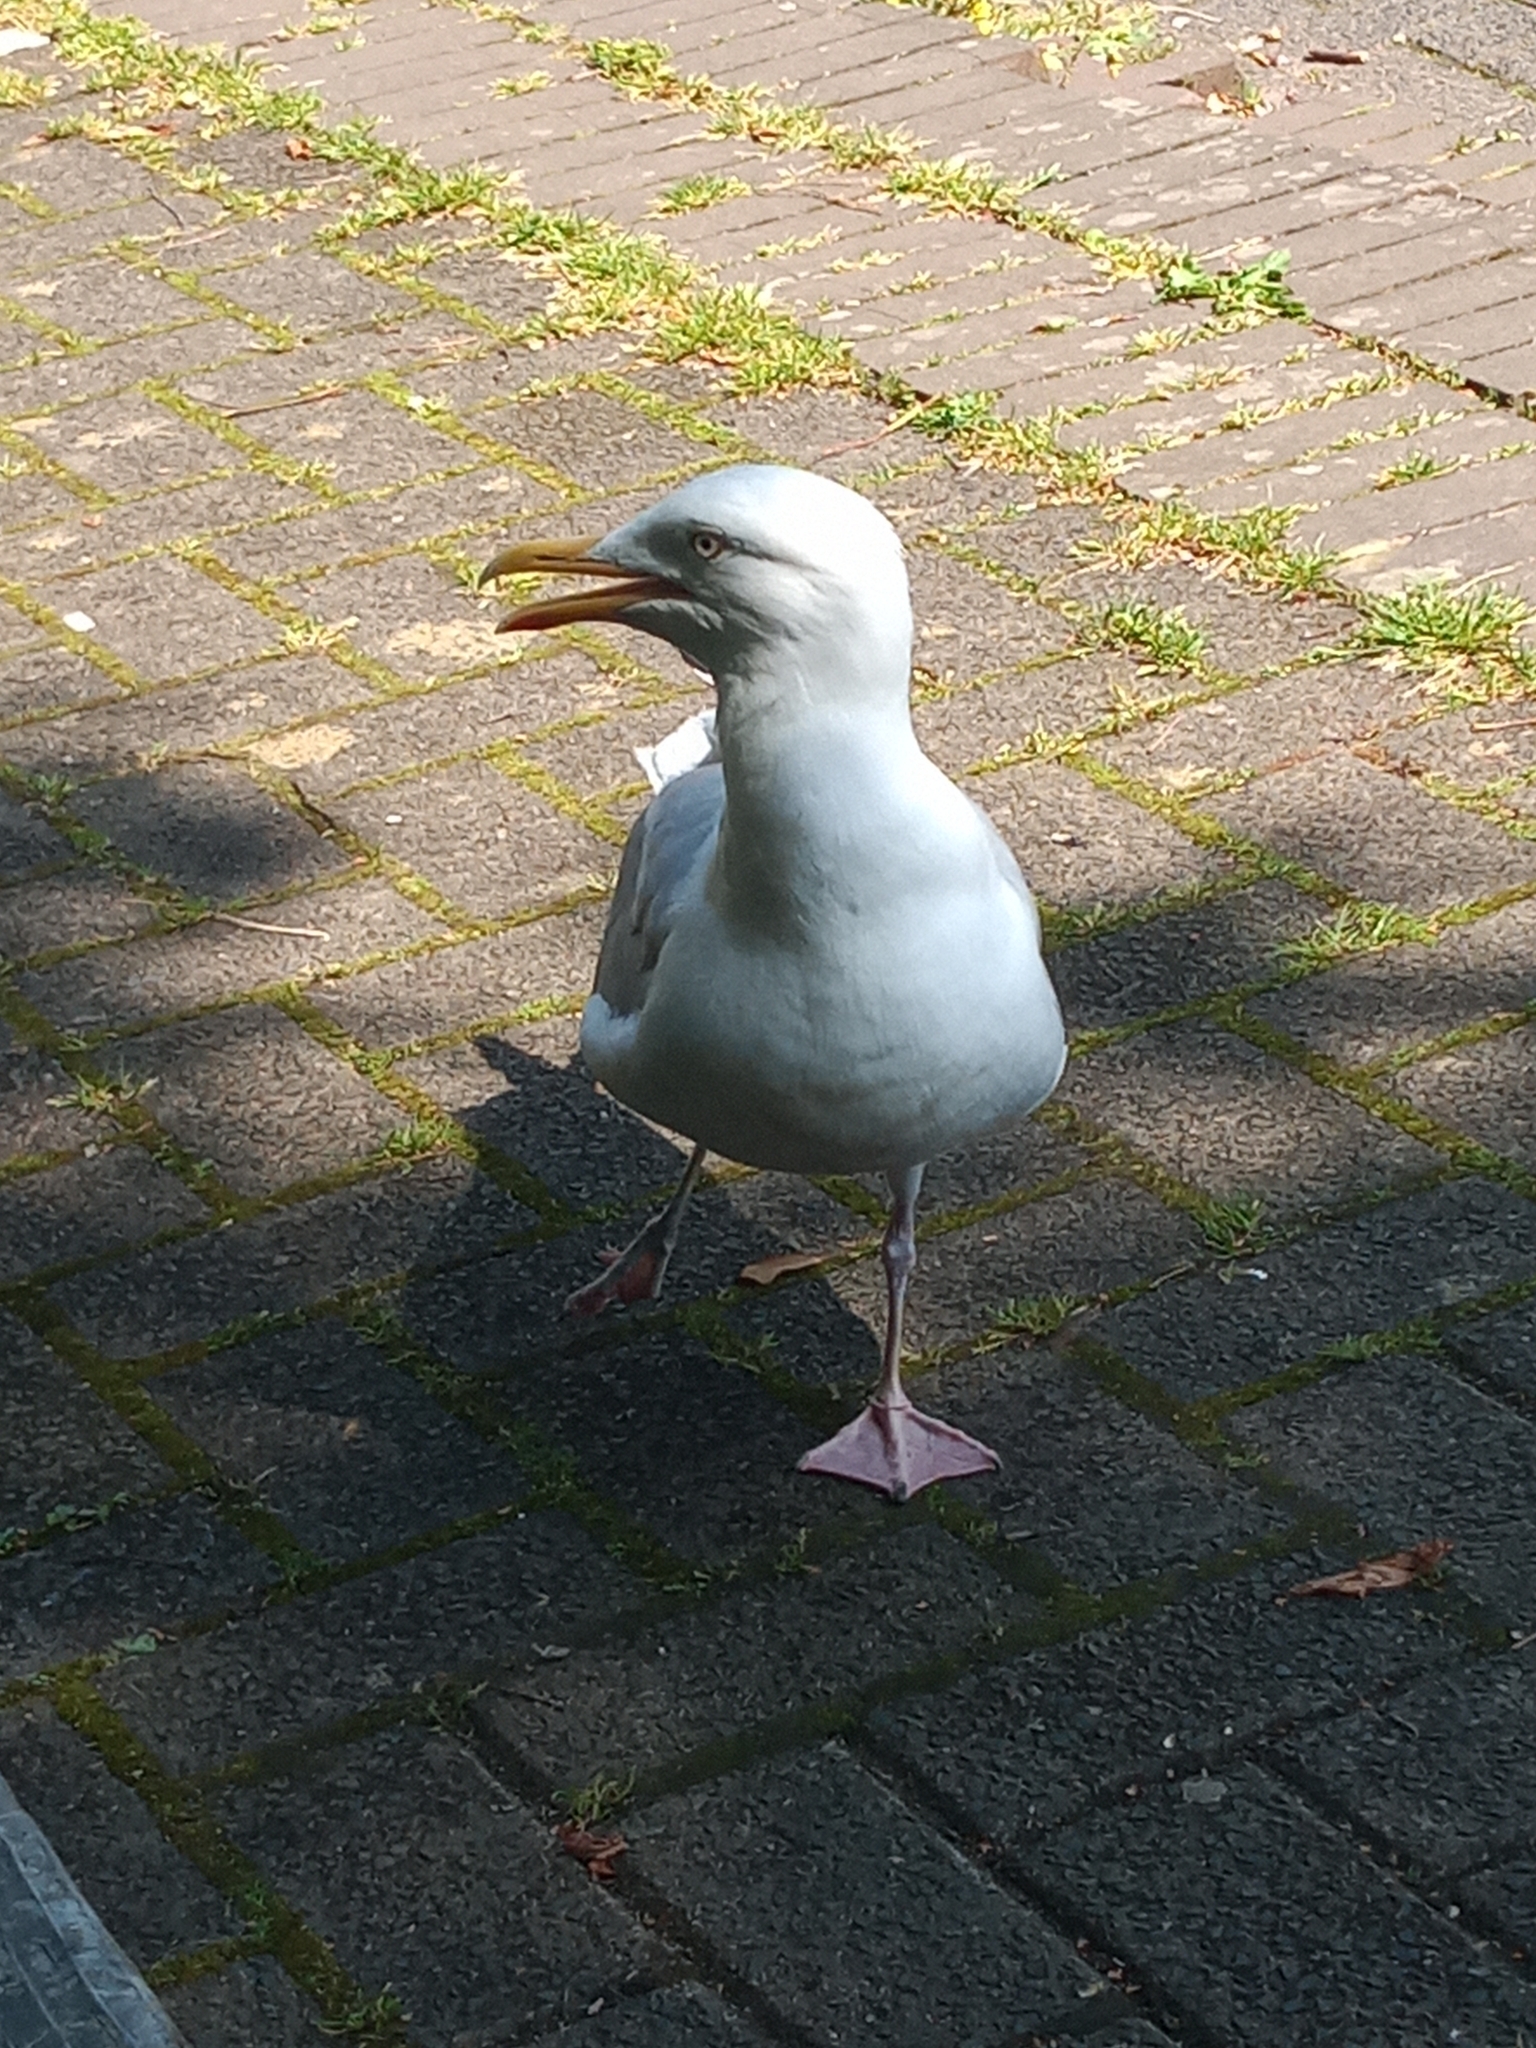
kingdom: Animalia
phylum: Chordata
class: Aves
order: Charadriiformes
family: Laridae
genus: Larus
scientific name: Larus argentatus
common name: Herring gull
